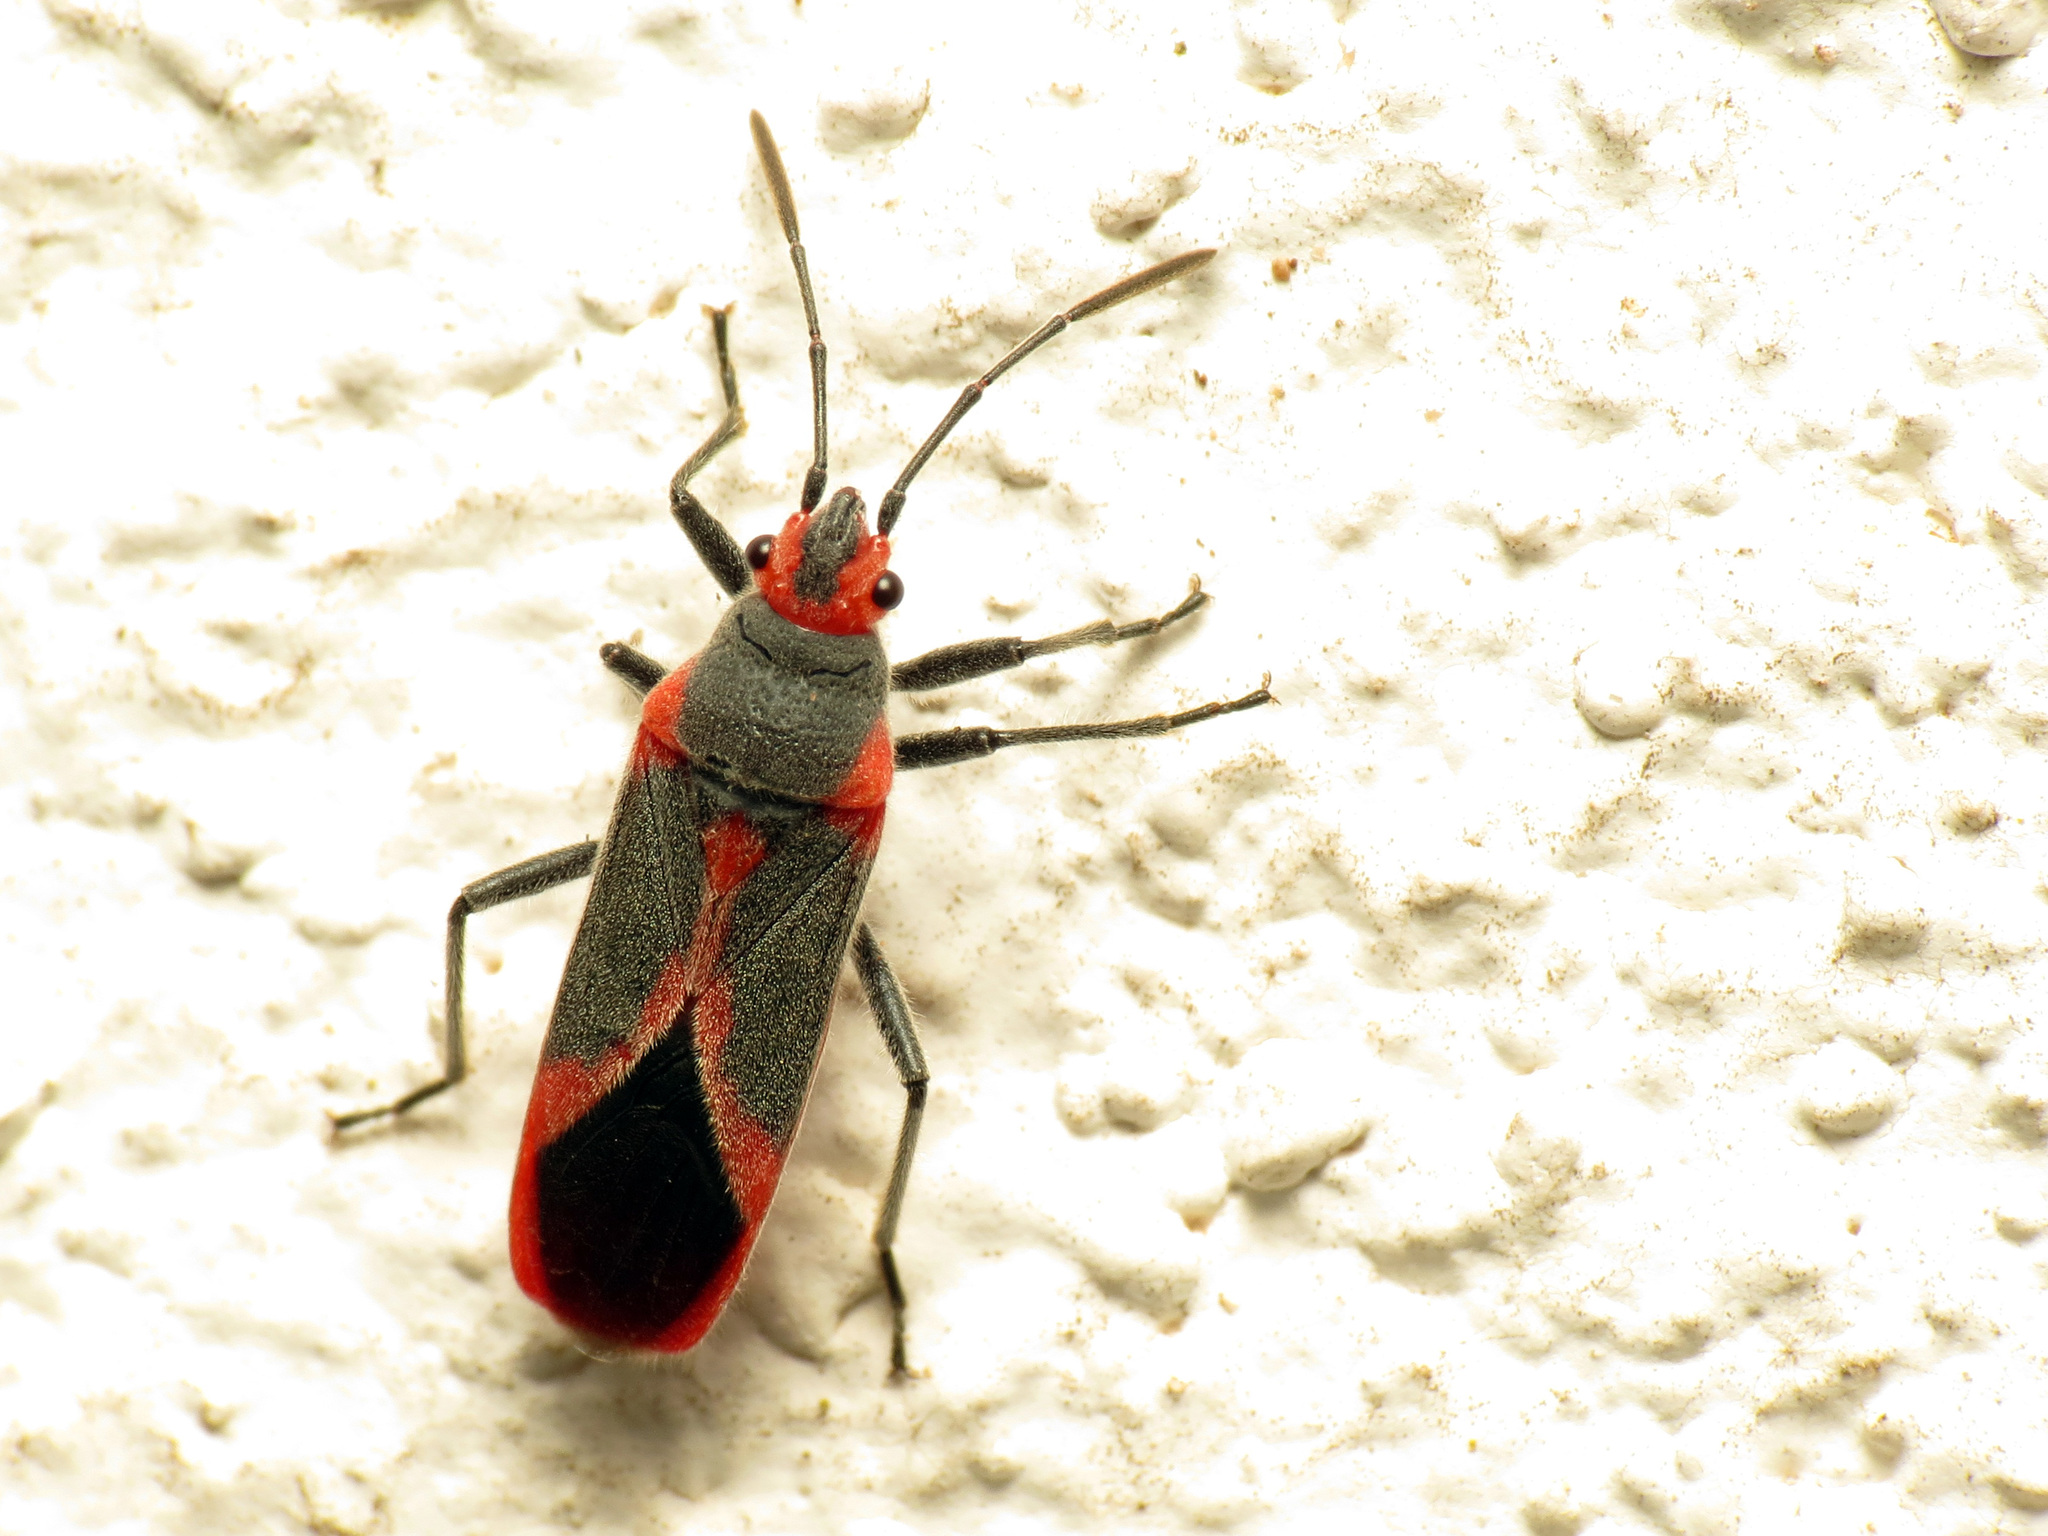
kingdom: Animalia
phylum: Arthropoda
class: Insecta
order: Hemiptera
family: Lygaeidae
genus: Caenocoris
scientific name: Caenocoris nerii
